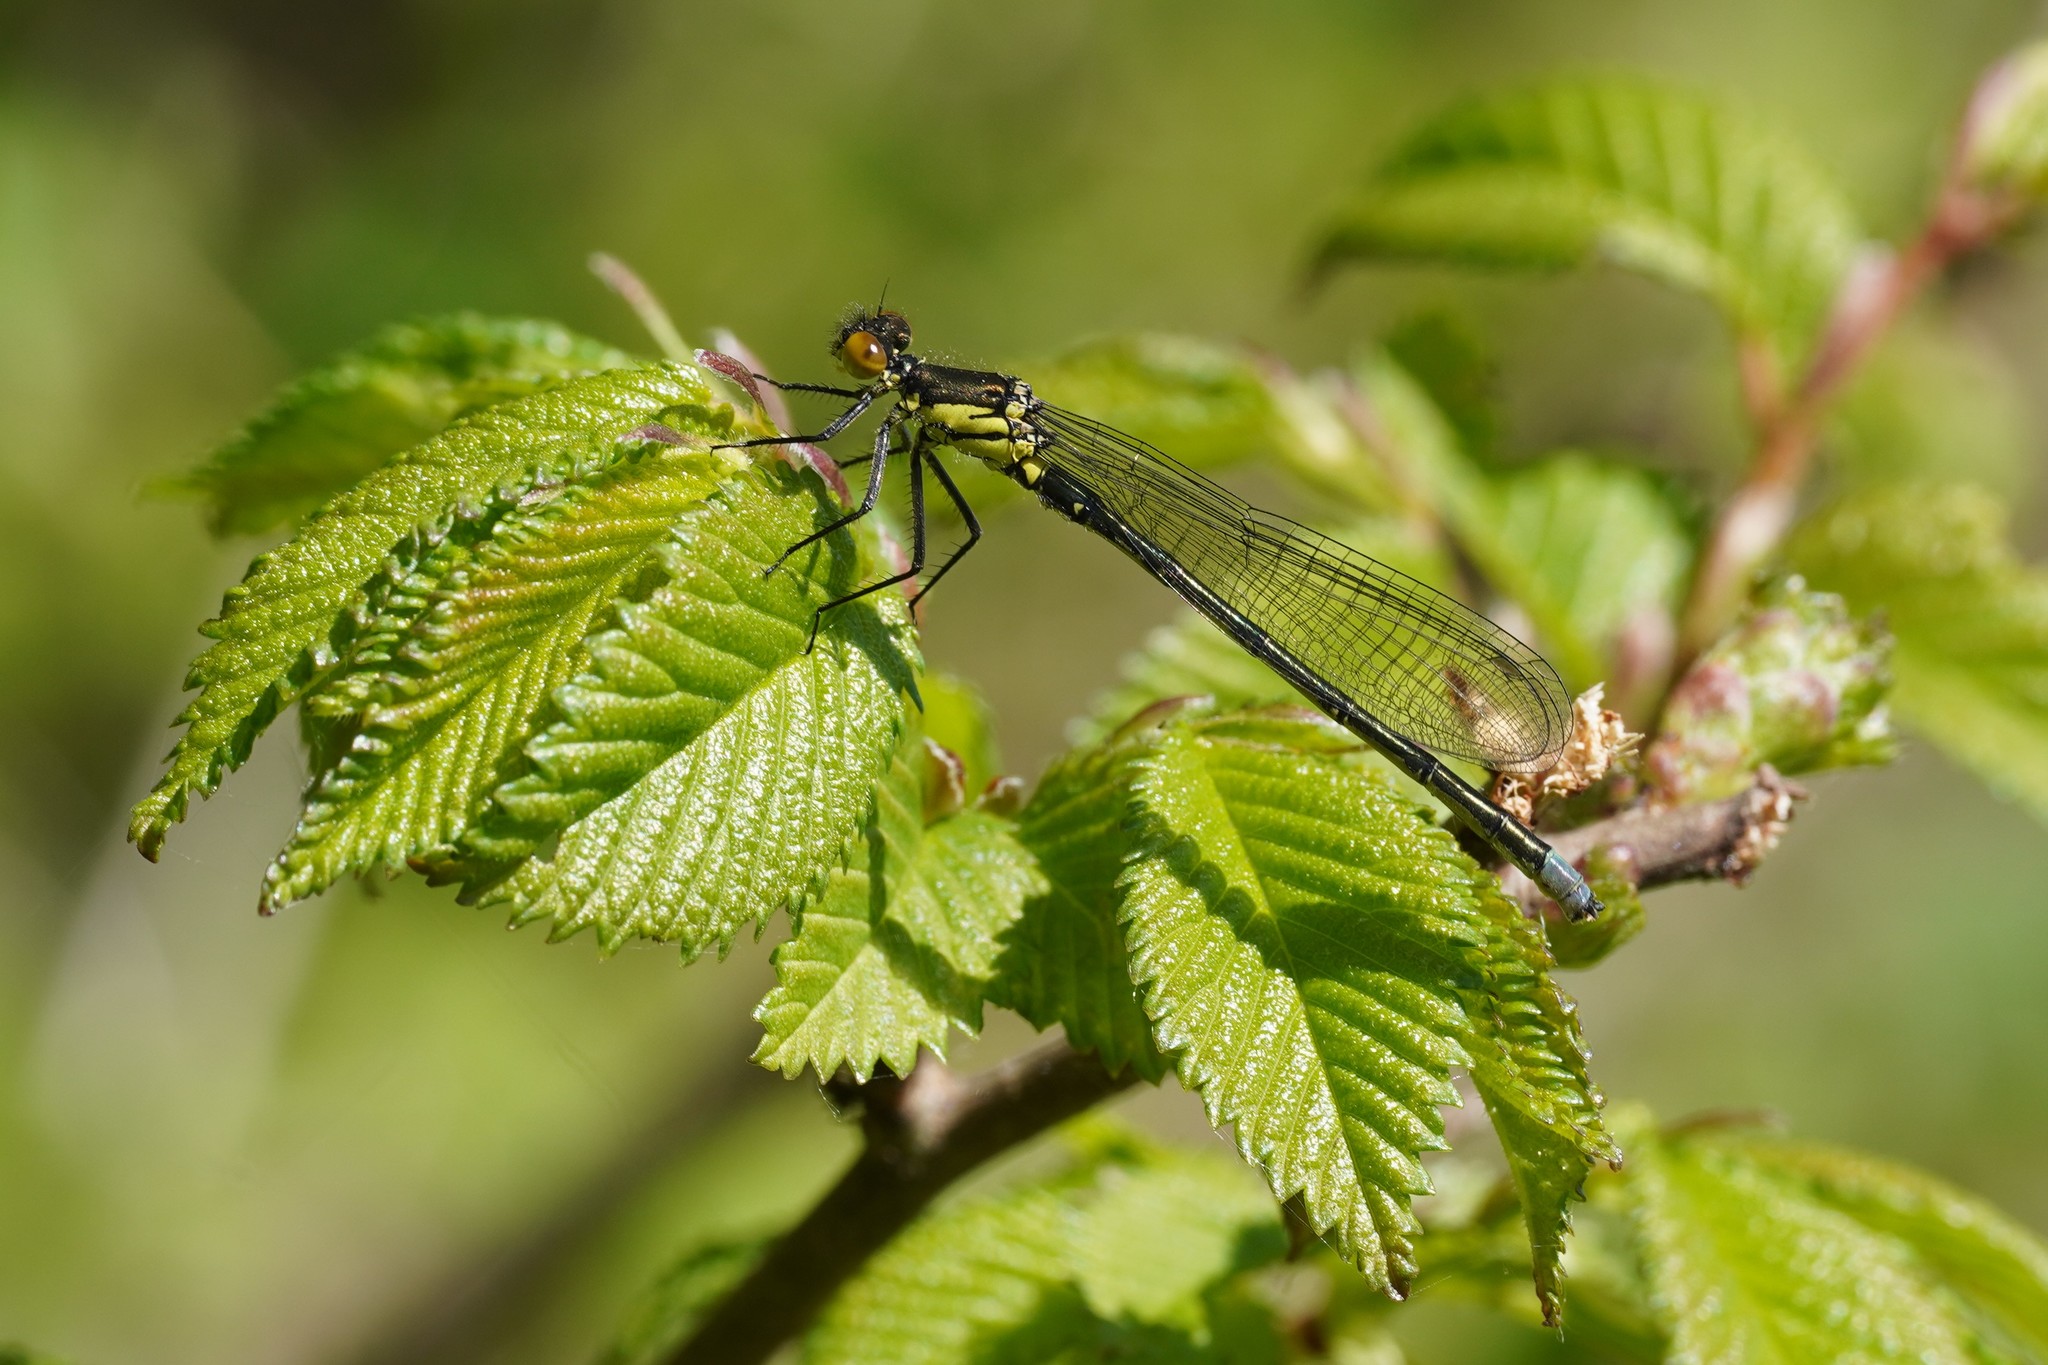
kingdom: Animalia
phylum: Arthropoda
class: Insecta
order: Odonata
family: Coenagrionidae
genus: Erythromma
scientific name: Erythromma najas
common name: Red-eyed damselfly
